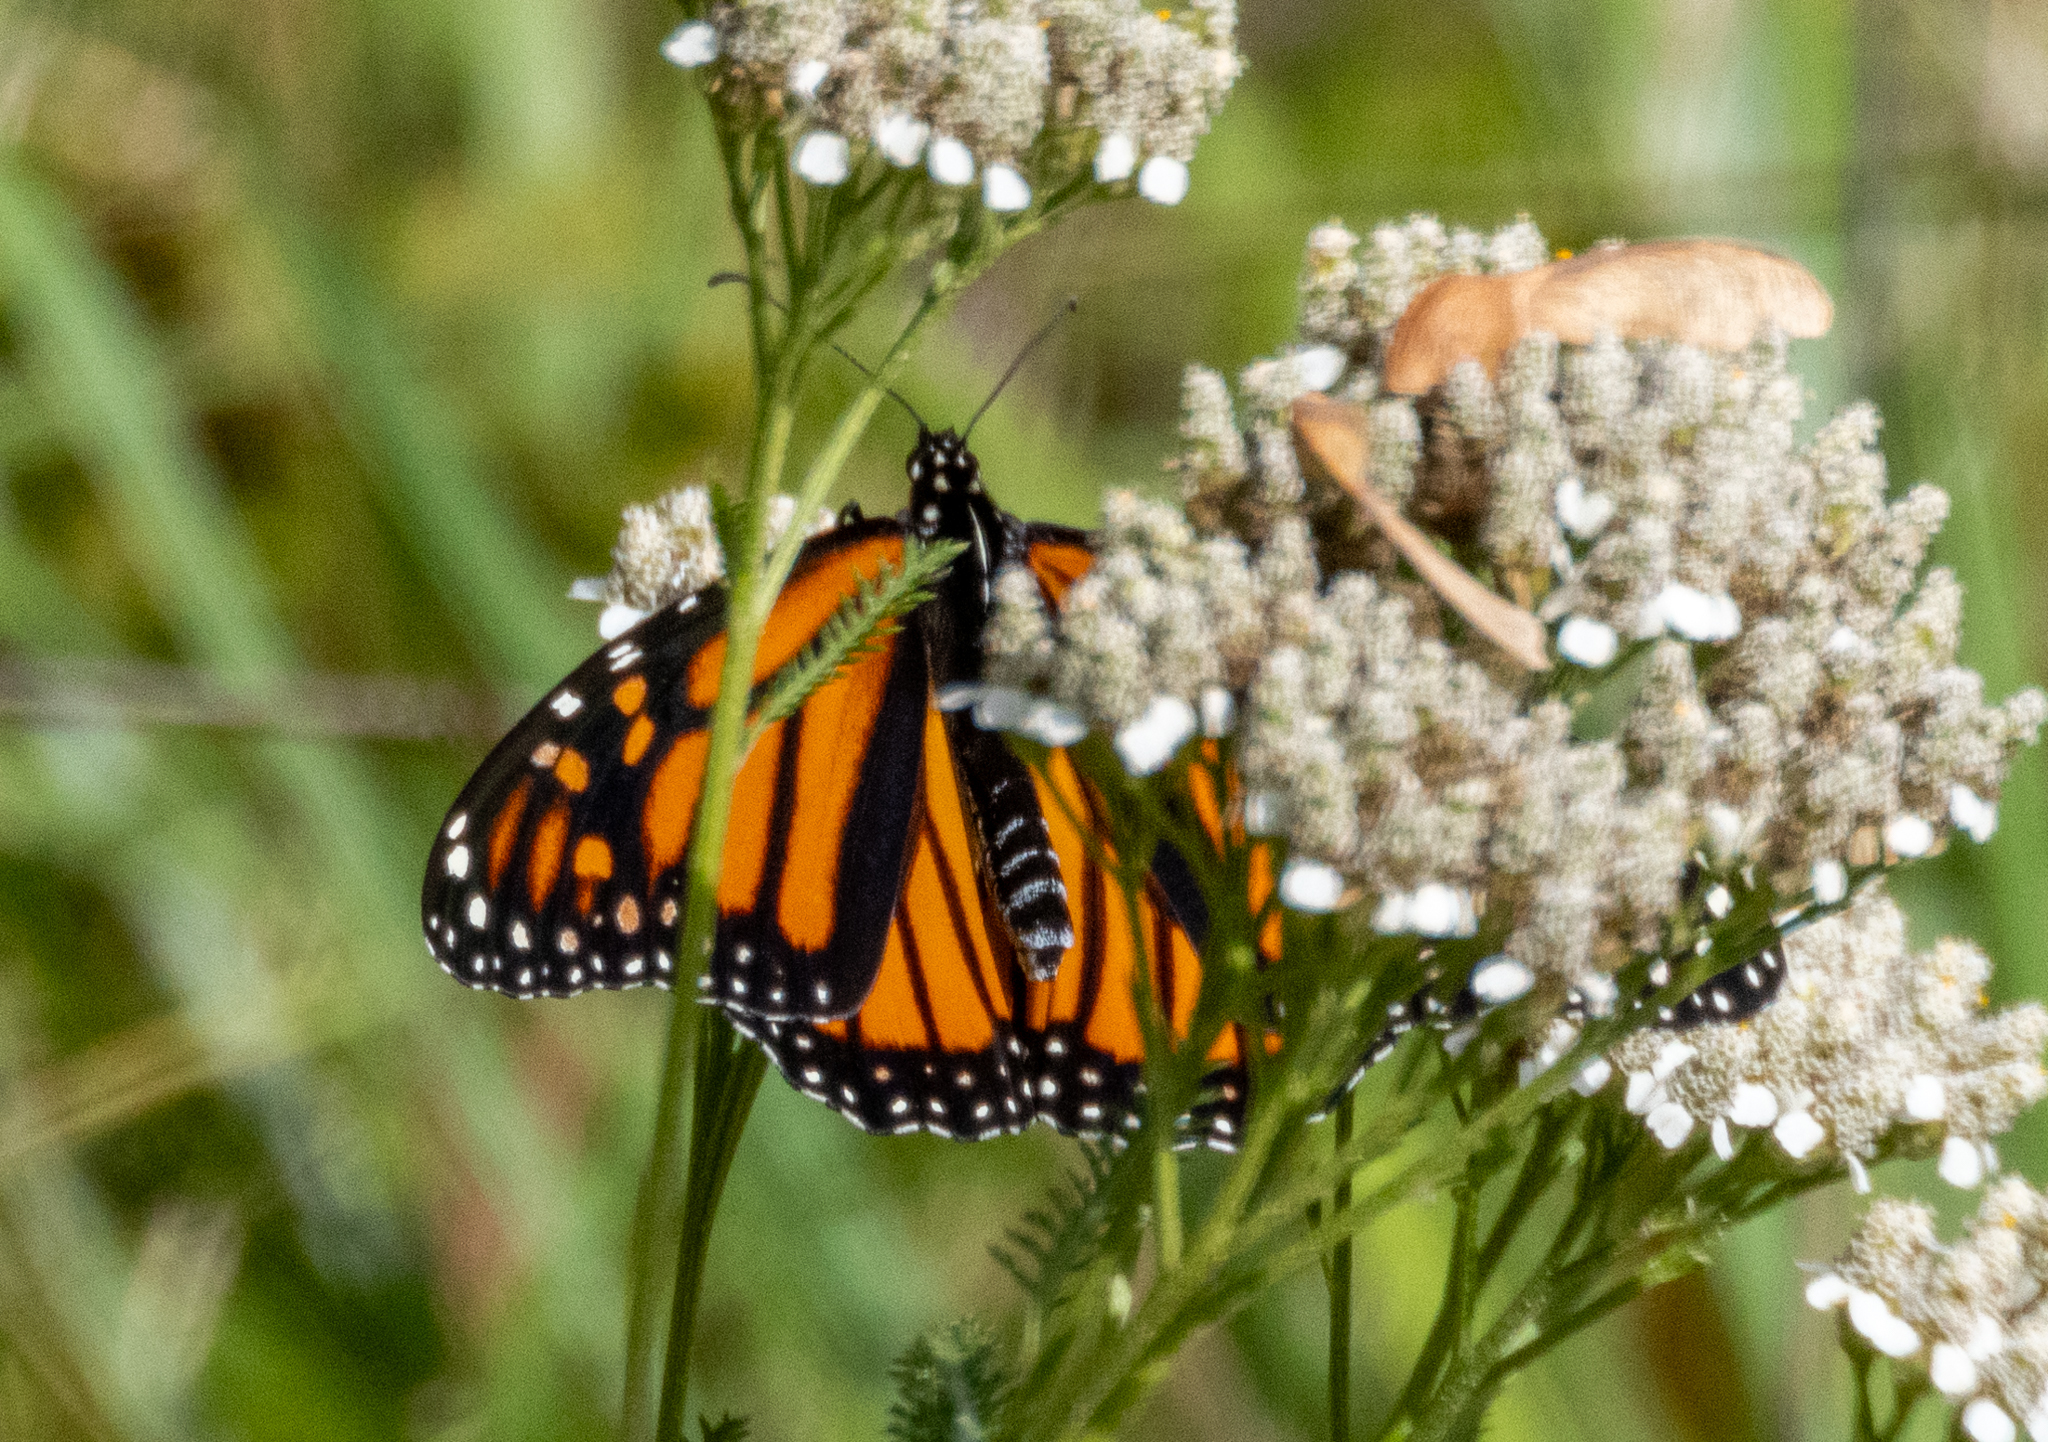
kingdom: Animalia
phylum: Arthropoda
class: Insecta
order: Lepidoptera
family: Nymphalidae
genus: Danaus
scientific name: Danaus plexippus
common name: Monarch
